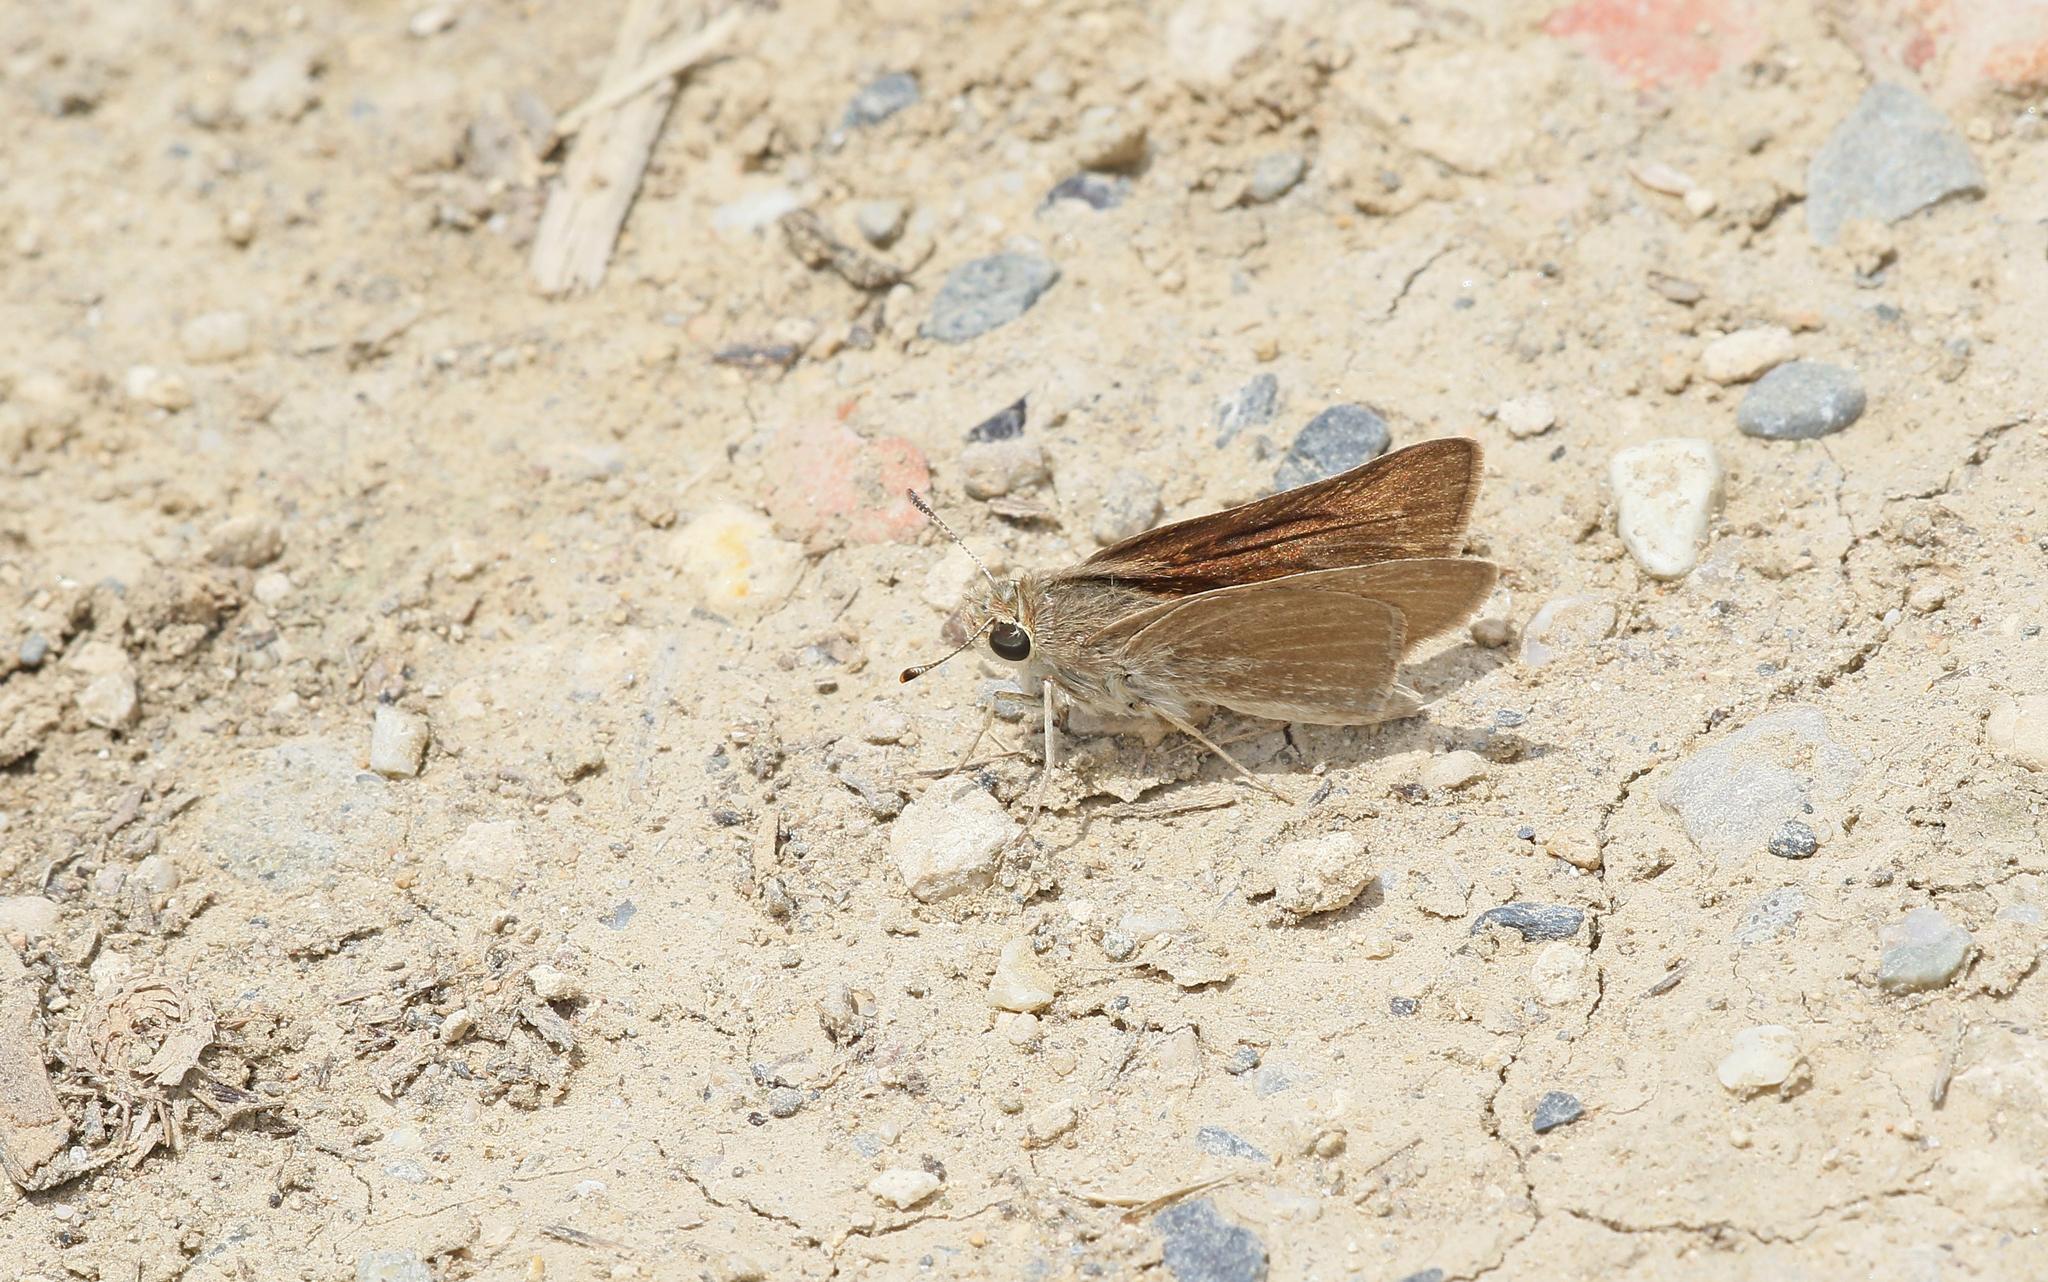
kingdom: Animalia
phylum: Arthropoda
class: Insecta
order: Lepidoptera
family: Hesperiidae
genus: Gegenes
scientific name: Gegenes nostrodamus
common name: Mediterranean skipper
